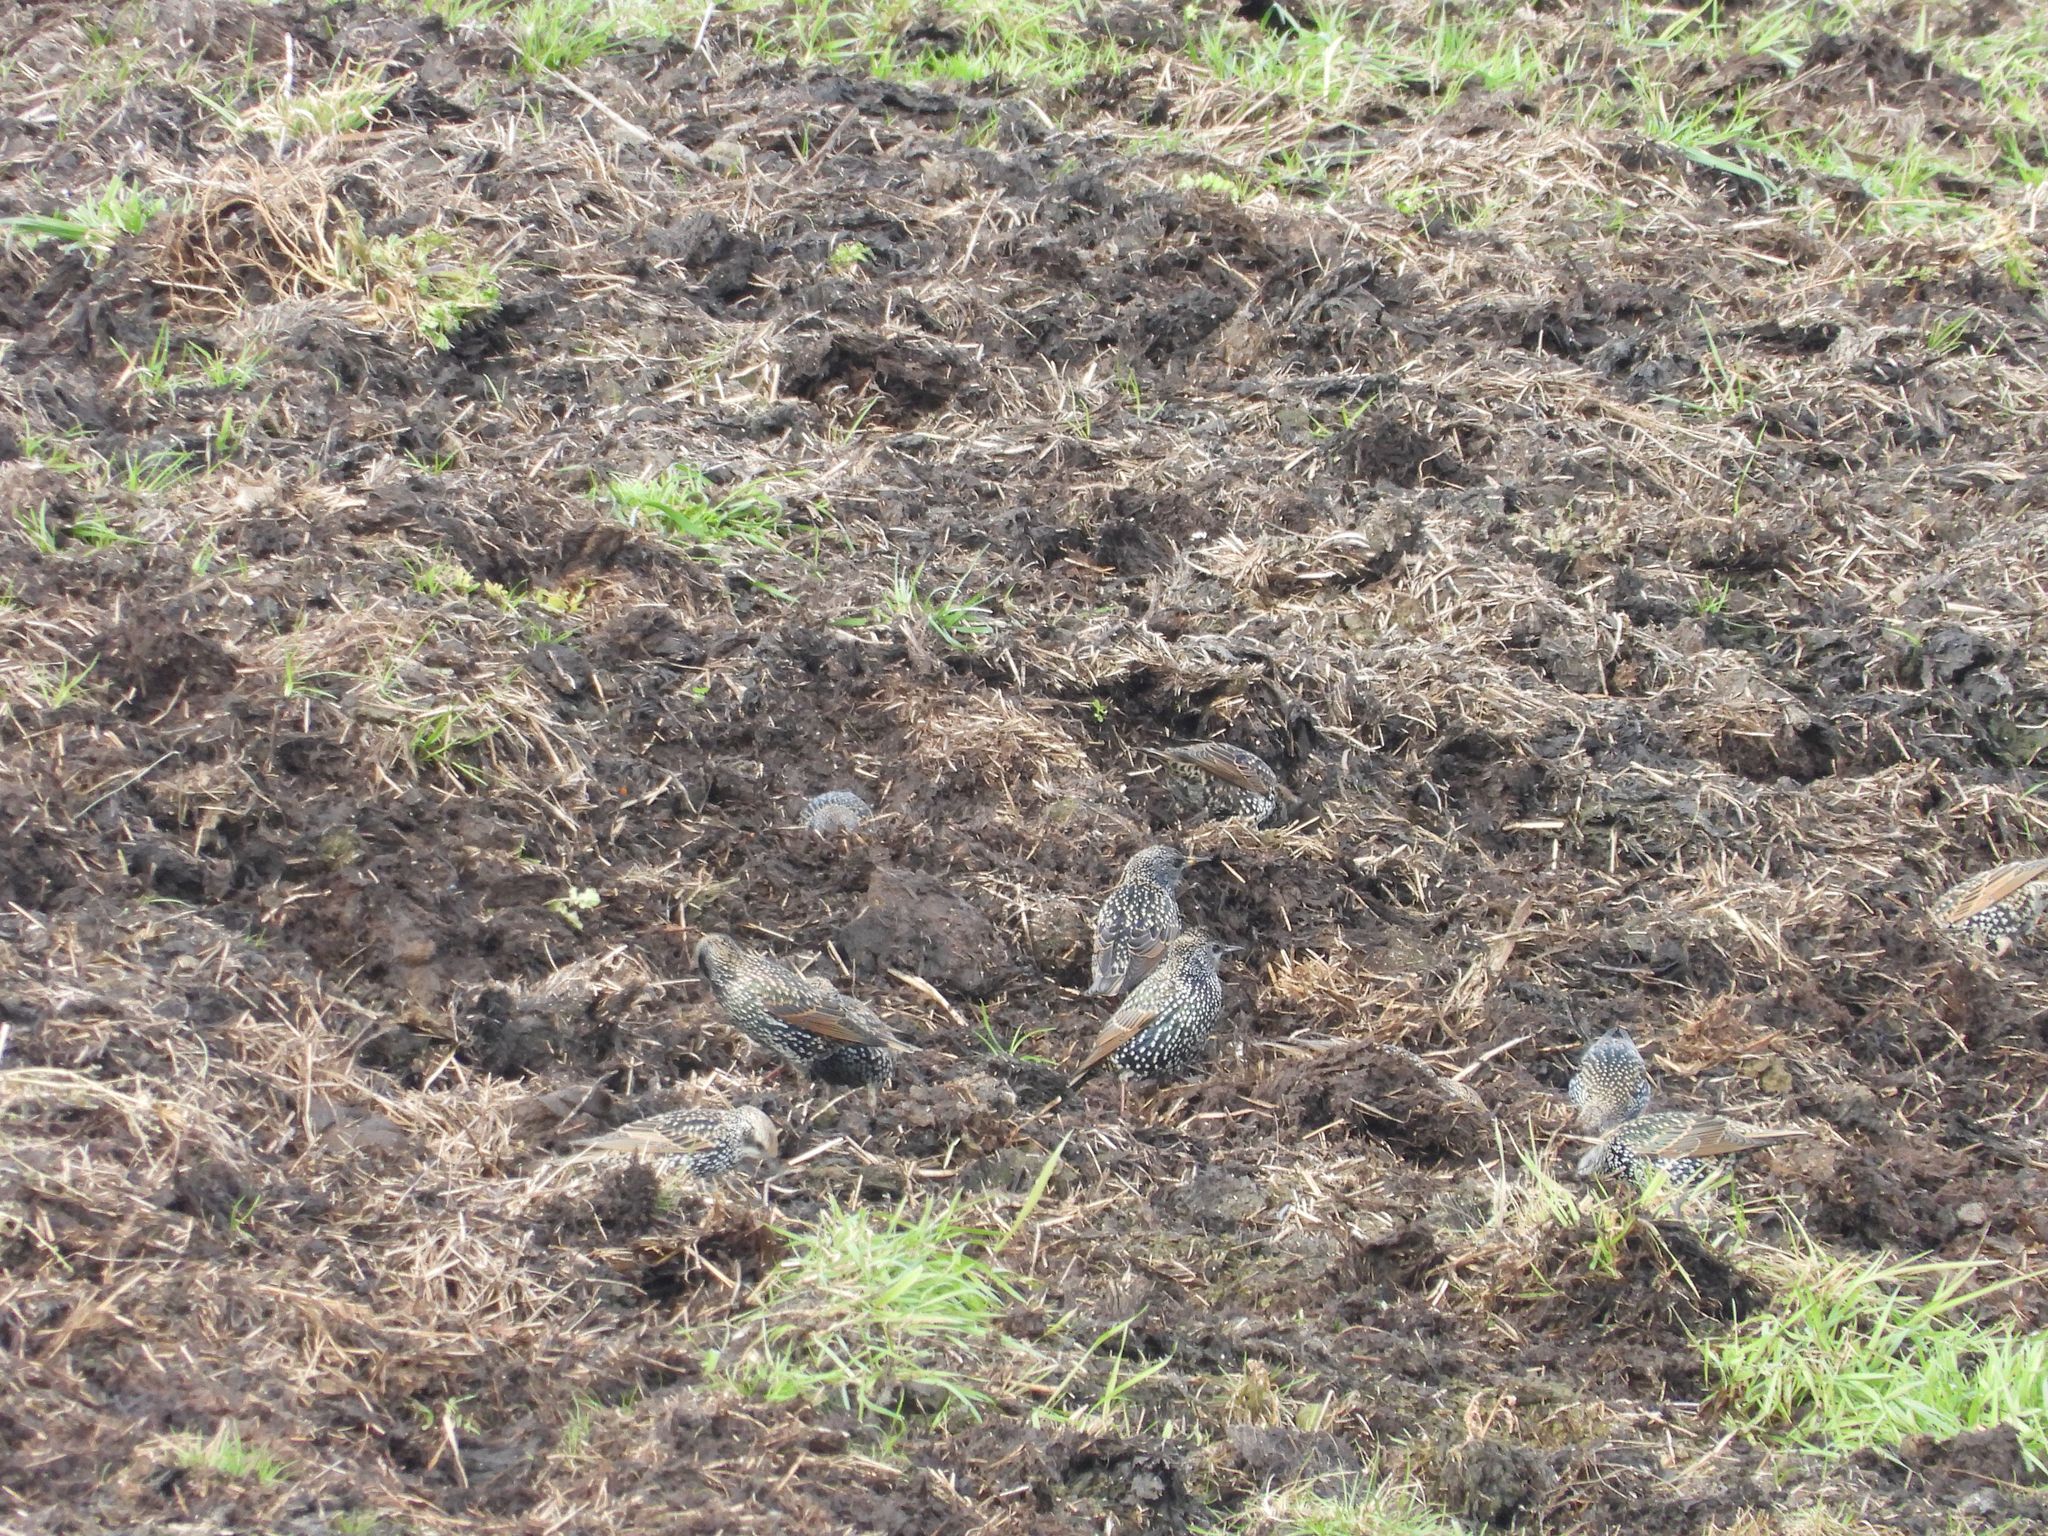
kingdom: Animalia
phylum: Chordata
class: Aves
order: Passeriformes
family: Sturnidae
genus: Sturnus
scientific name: Sturnus vulgaris
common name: Common starling
